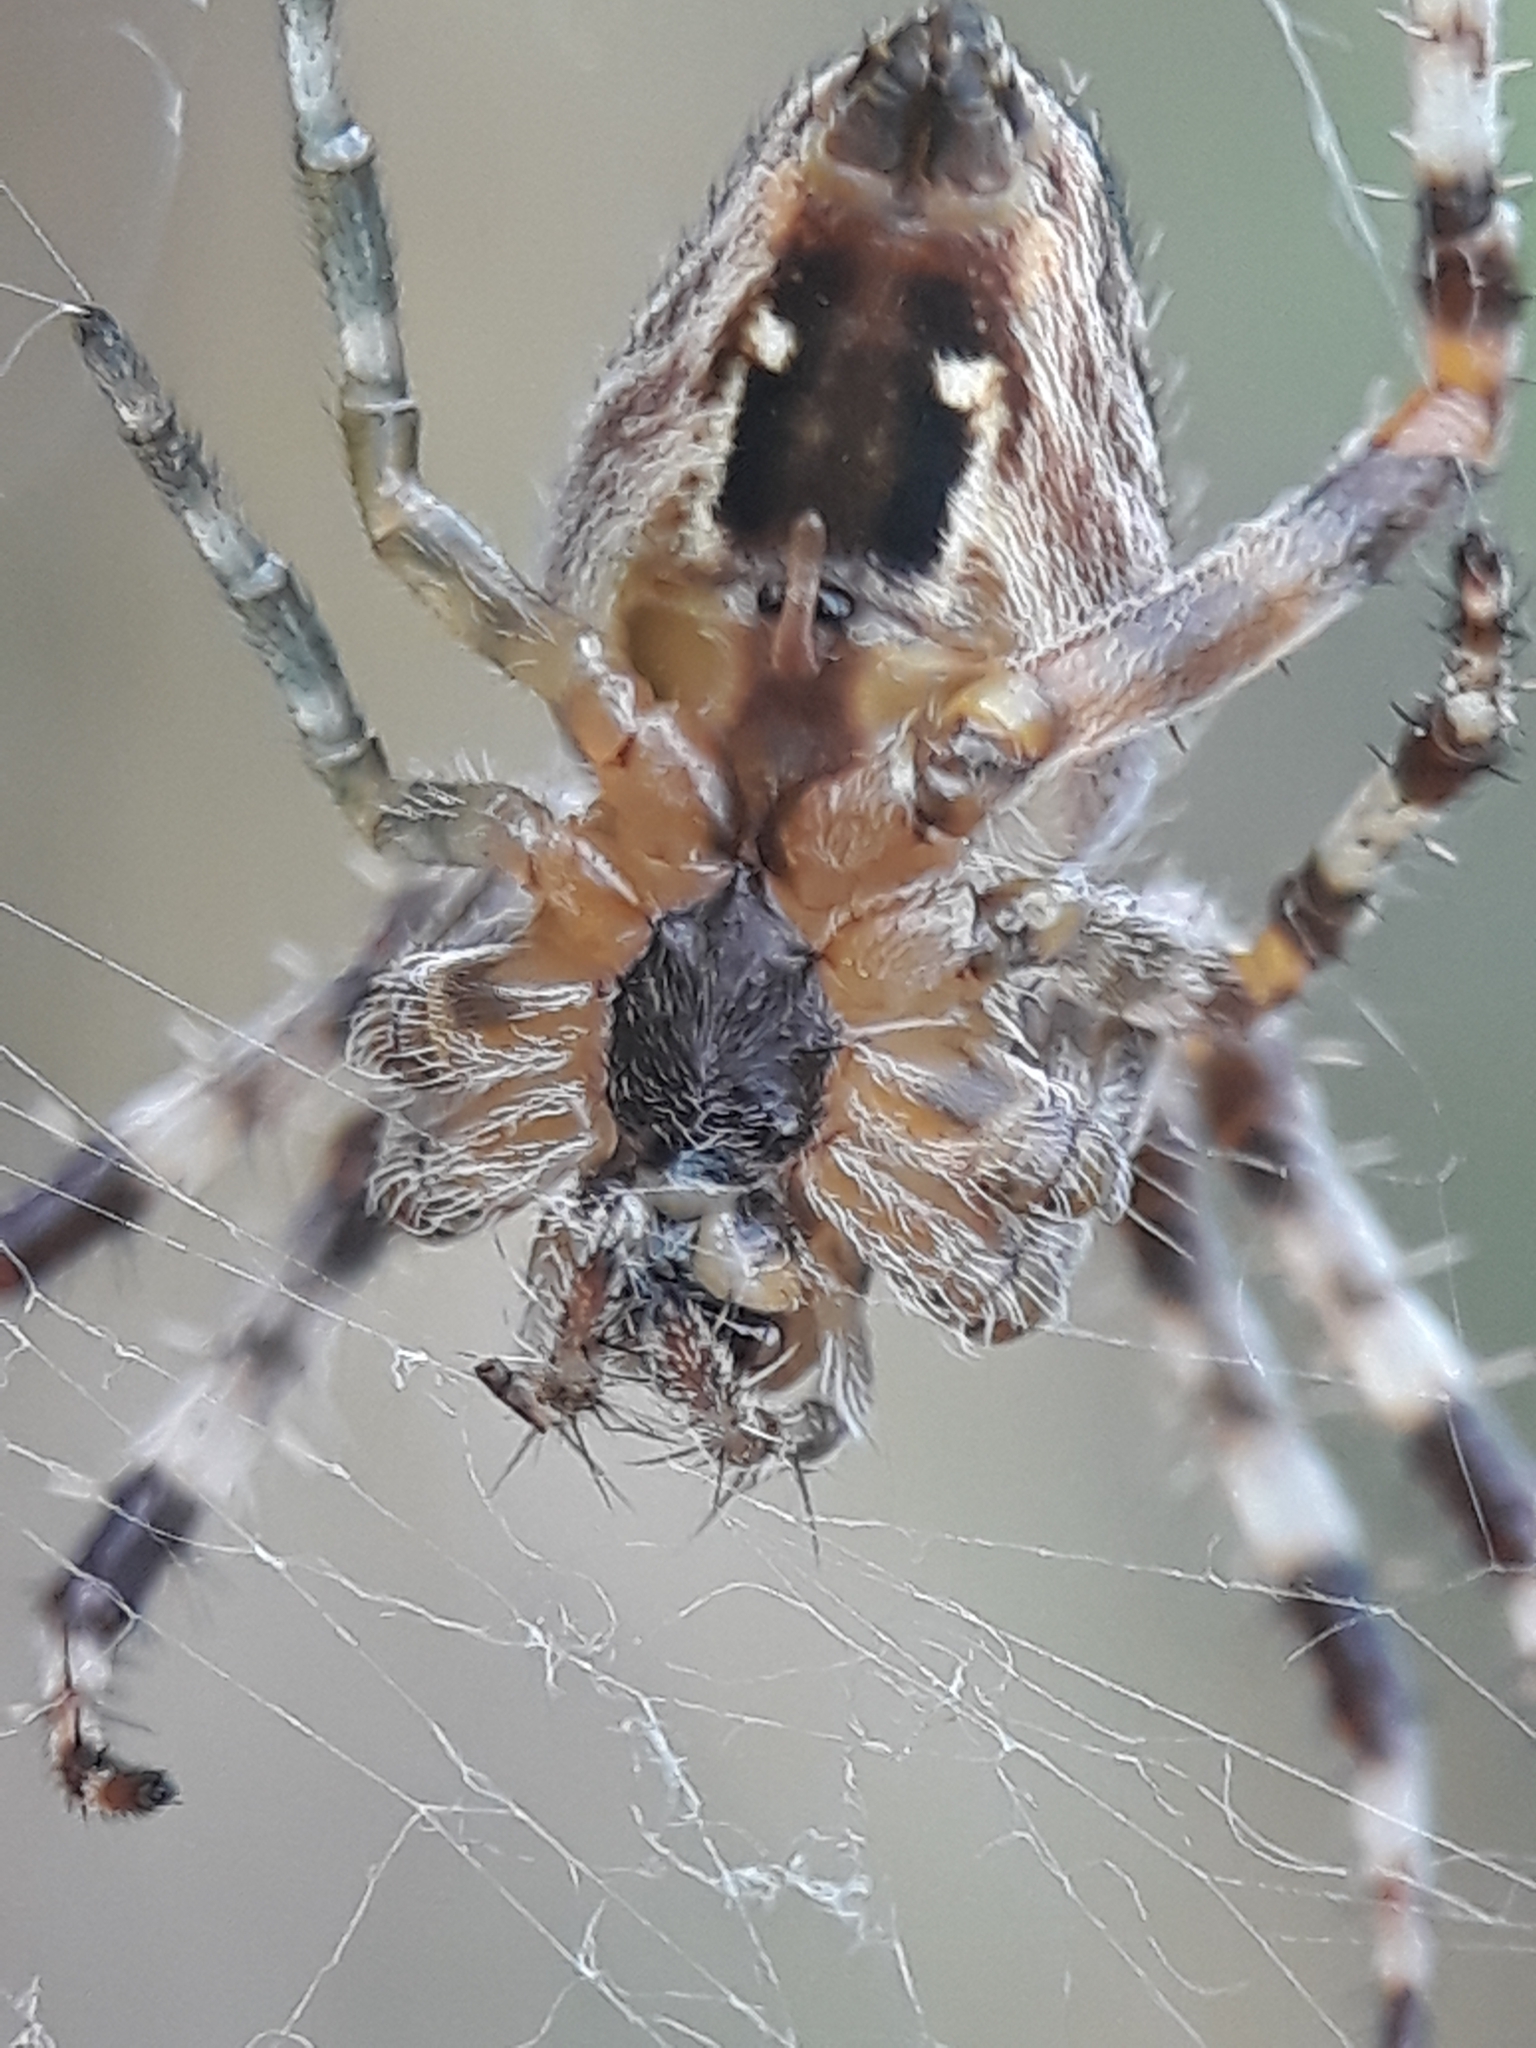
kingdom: Animalia
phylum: Arthropoda
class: Arachnida
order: Araneae
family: Araneidae
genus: Araneus
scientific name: Araneus diadematus
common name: Cross orbweaver
